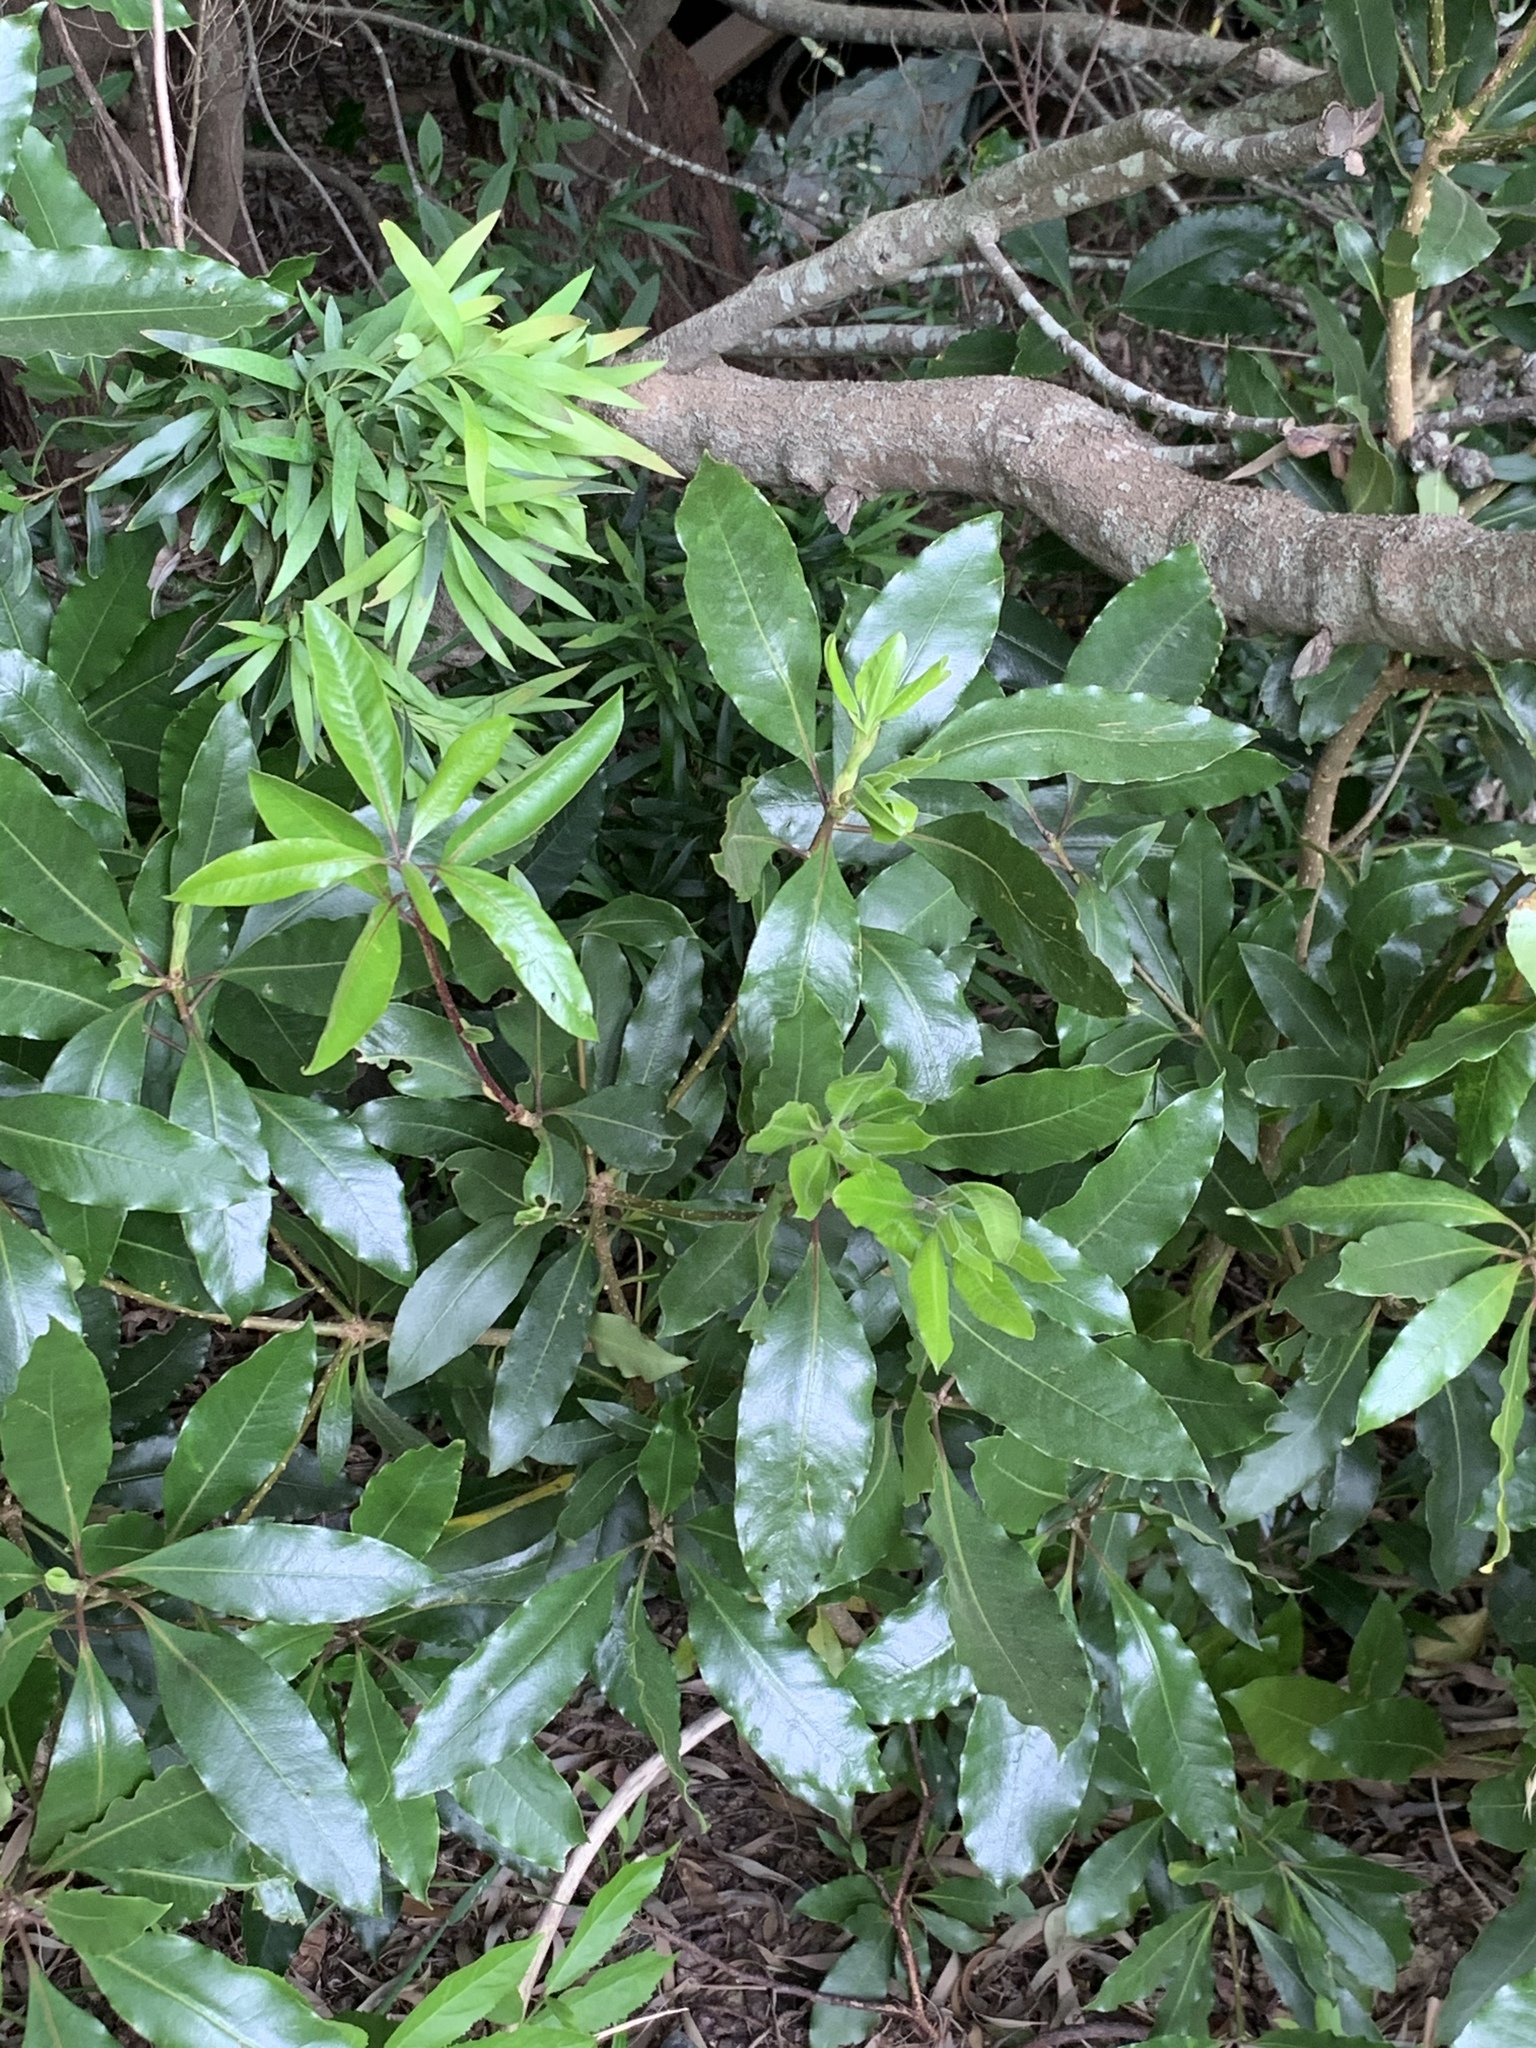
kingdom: Plantae
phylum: Tracheophyta
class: Magnoliopsida
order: Apiales
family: Pittosporaceae
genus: Pittosporum
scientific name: Pittosporum undulatum
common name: Australian cheesewood
